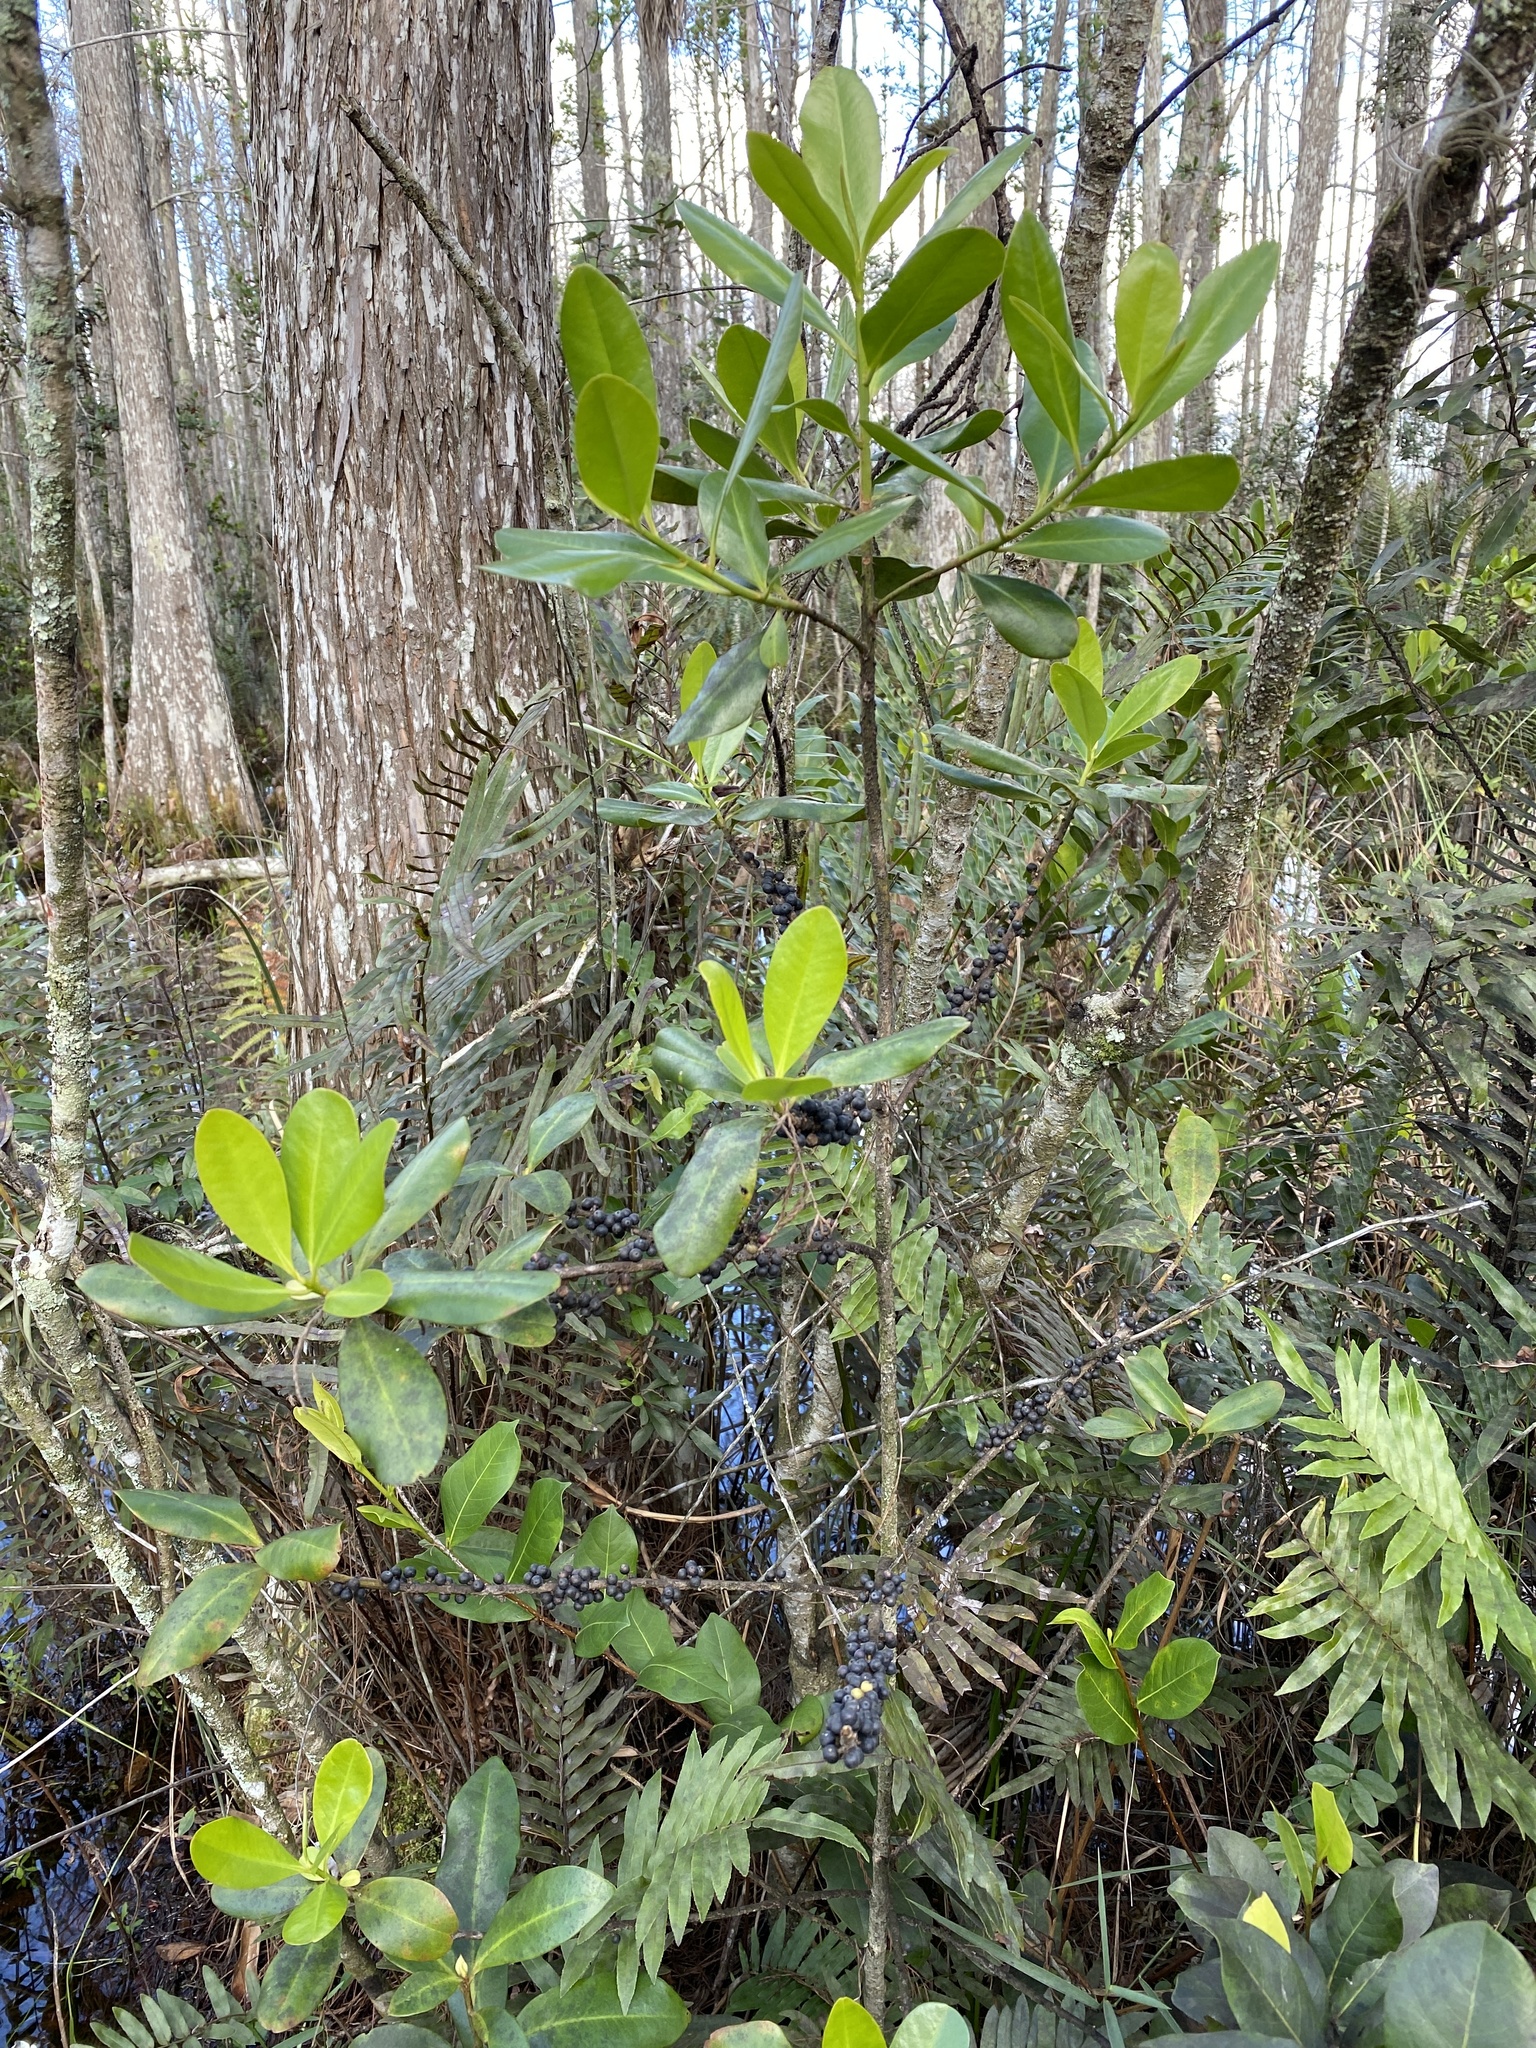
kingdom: Plantae
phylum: Tracheophyta
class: Magnoliopsida
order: Ericales
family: Primulaceae
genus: Myrsine
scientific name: Myrsine floridana
